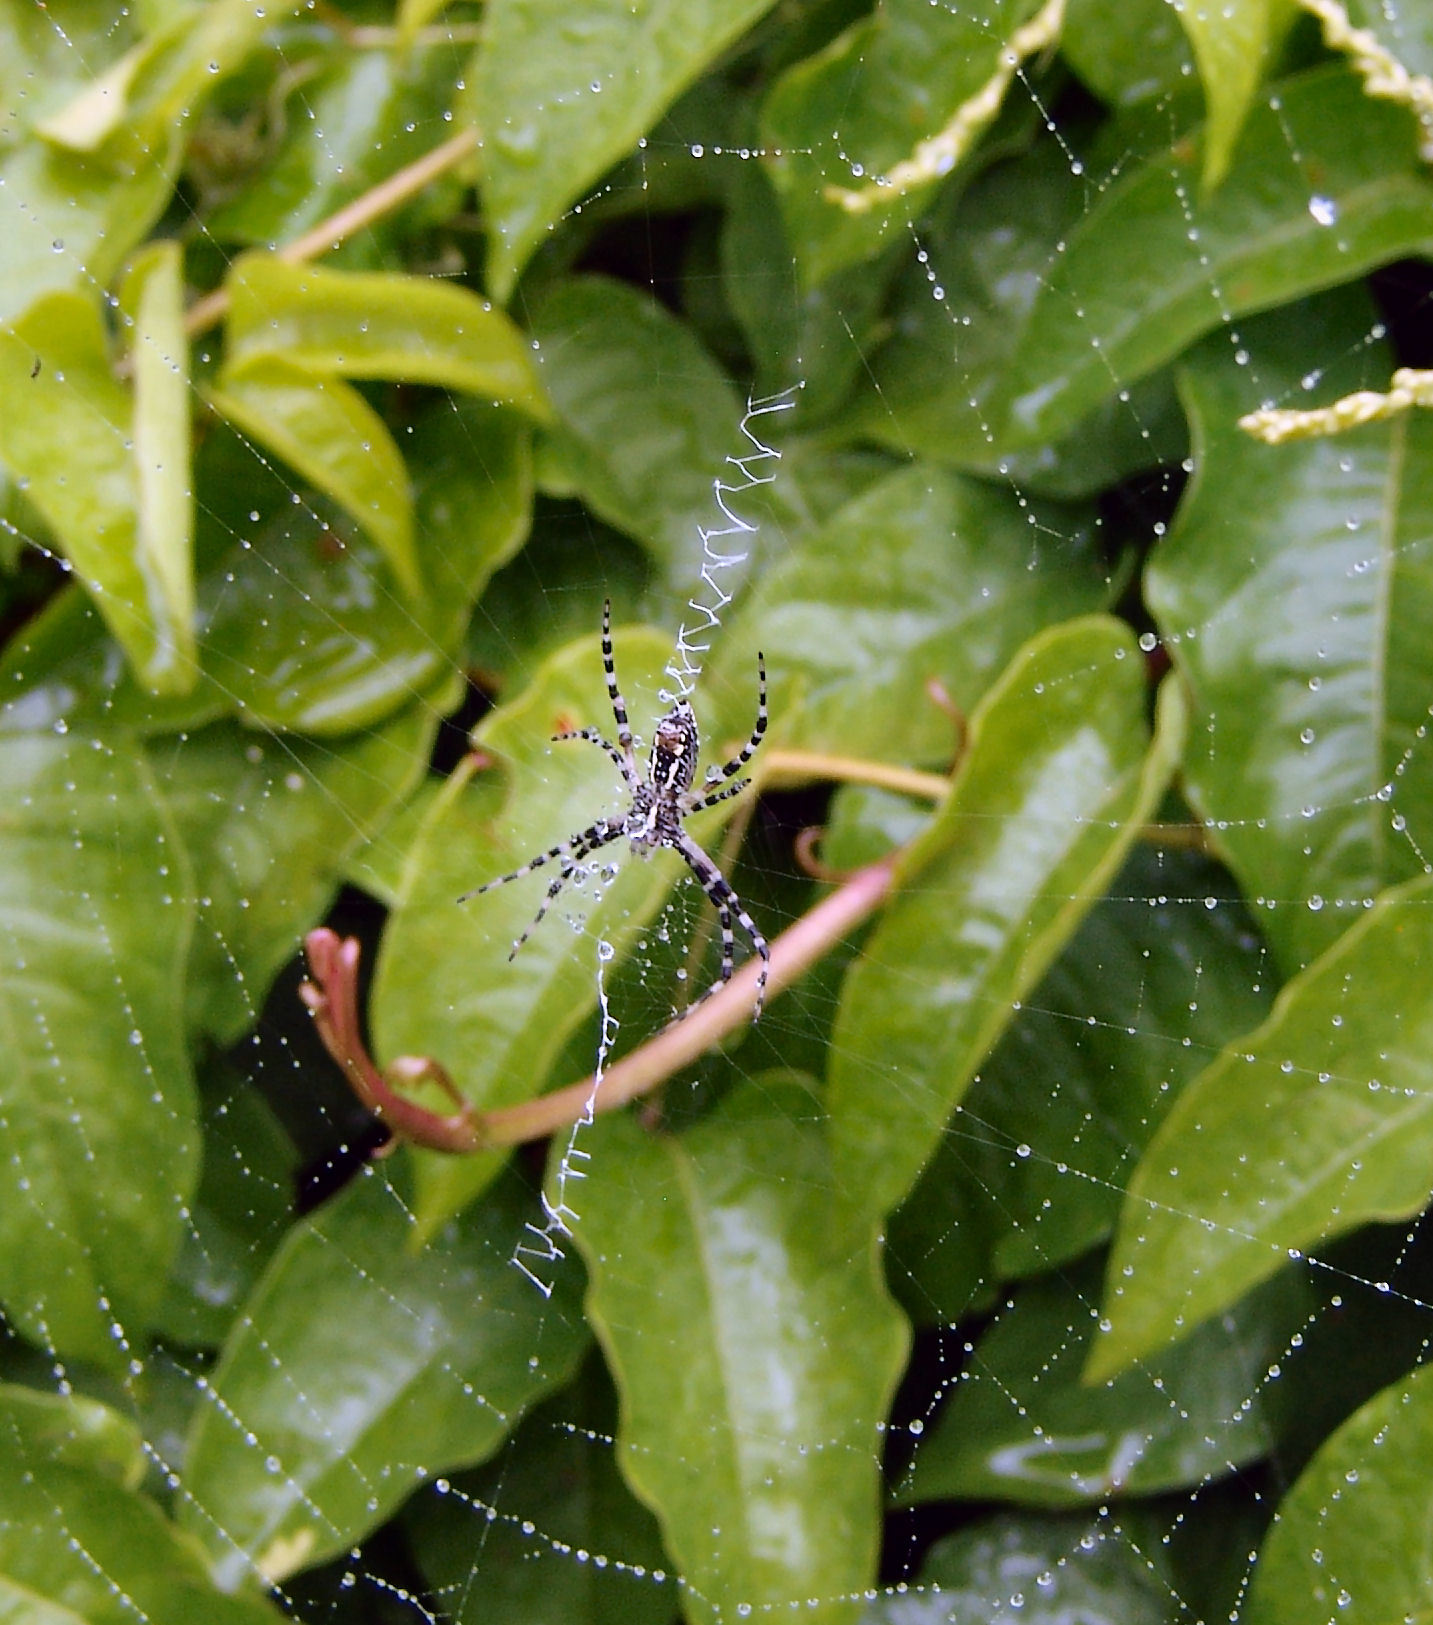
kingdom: Animalia
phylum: Arthropoda
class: Arachnida
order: Araneae
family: Araneidae
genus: Argiope
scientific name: Argiope aurantia
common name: Orb weavers
